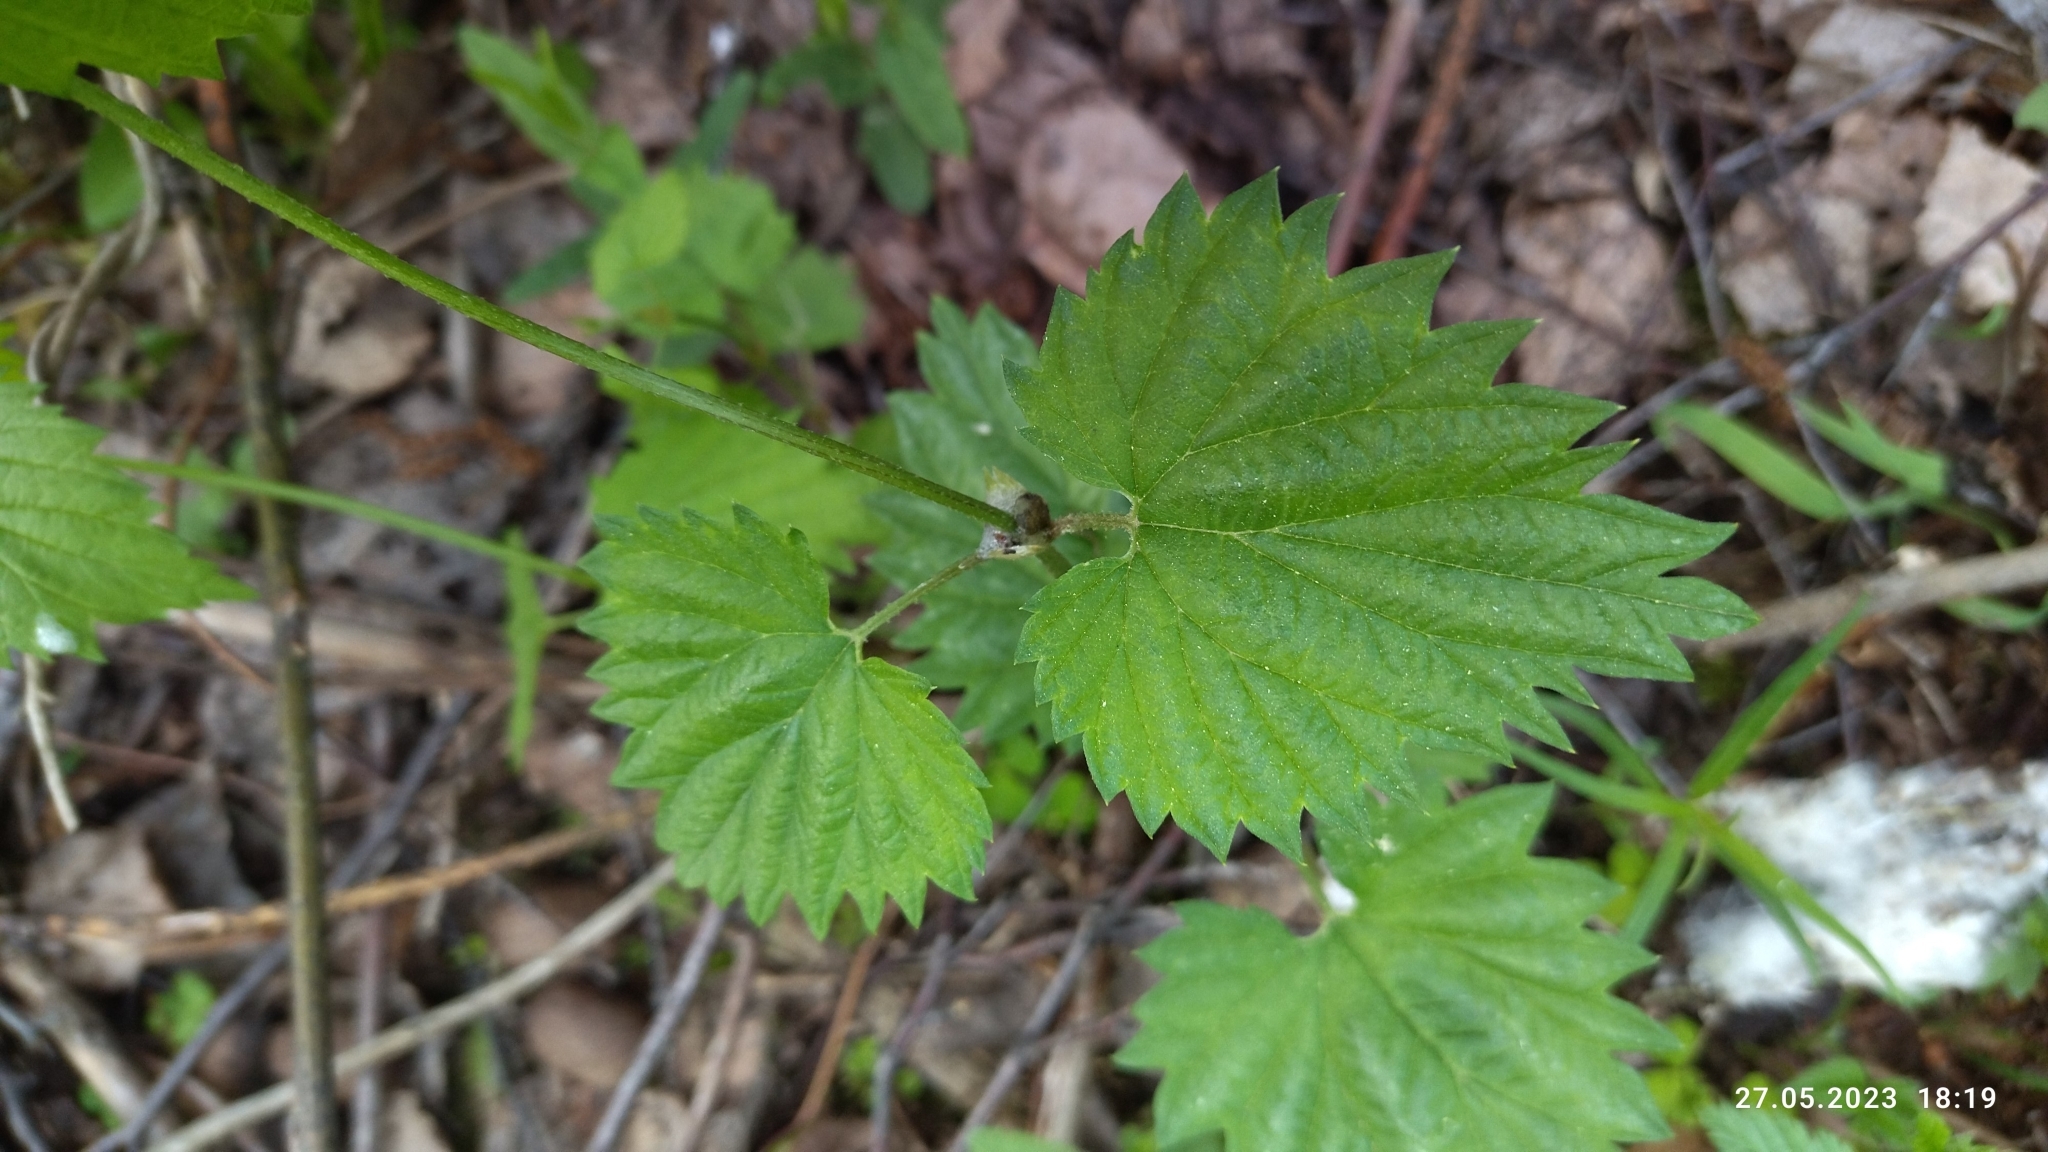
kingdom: Plantae
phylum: Tracheophyta
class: Magnoliopsida
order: Rosales
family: Cannabaceae
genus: Humulus
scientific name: Humulus lupulus
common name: Hop
